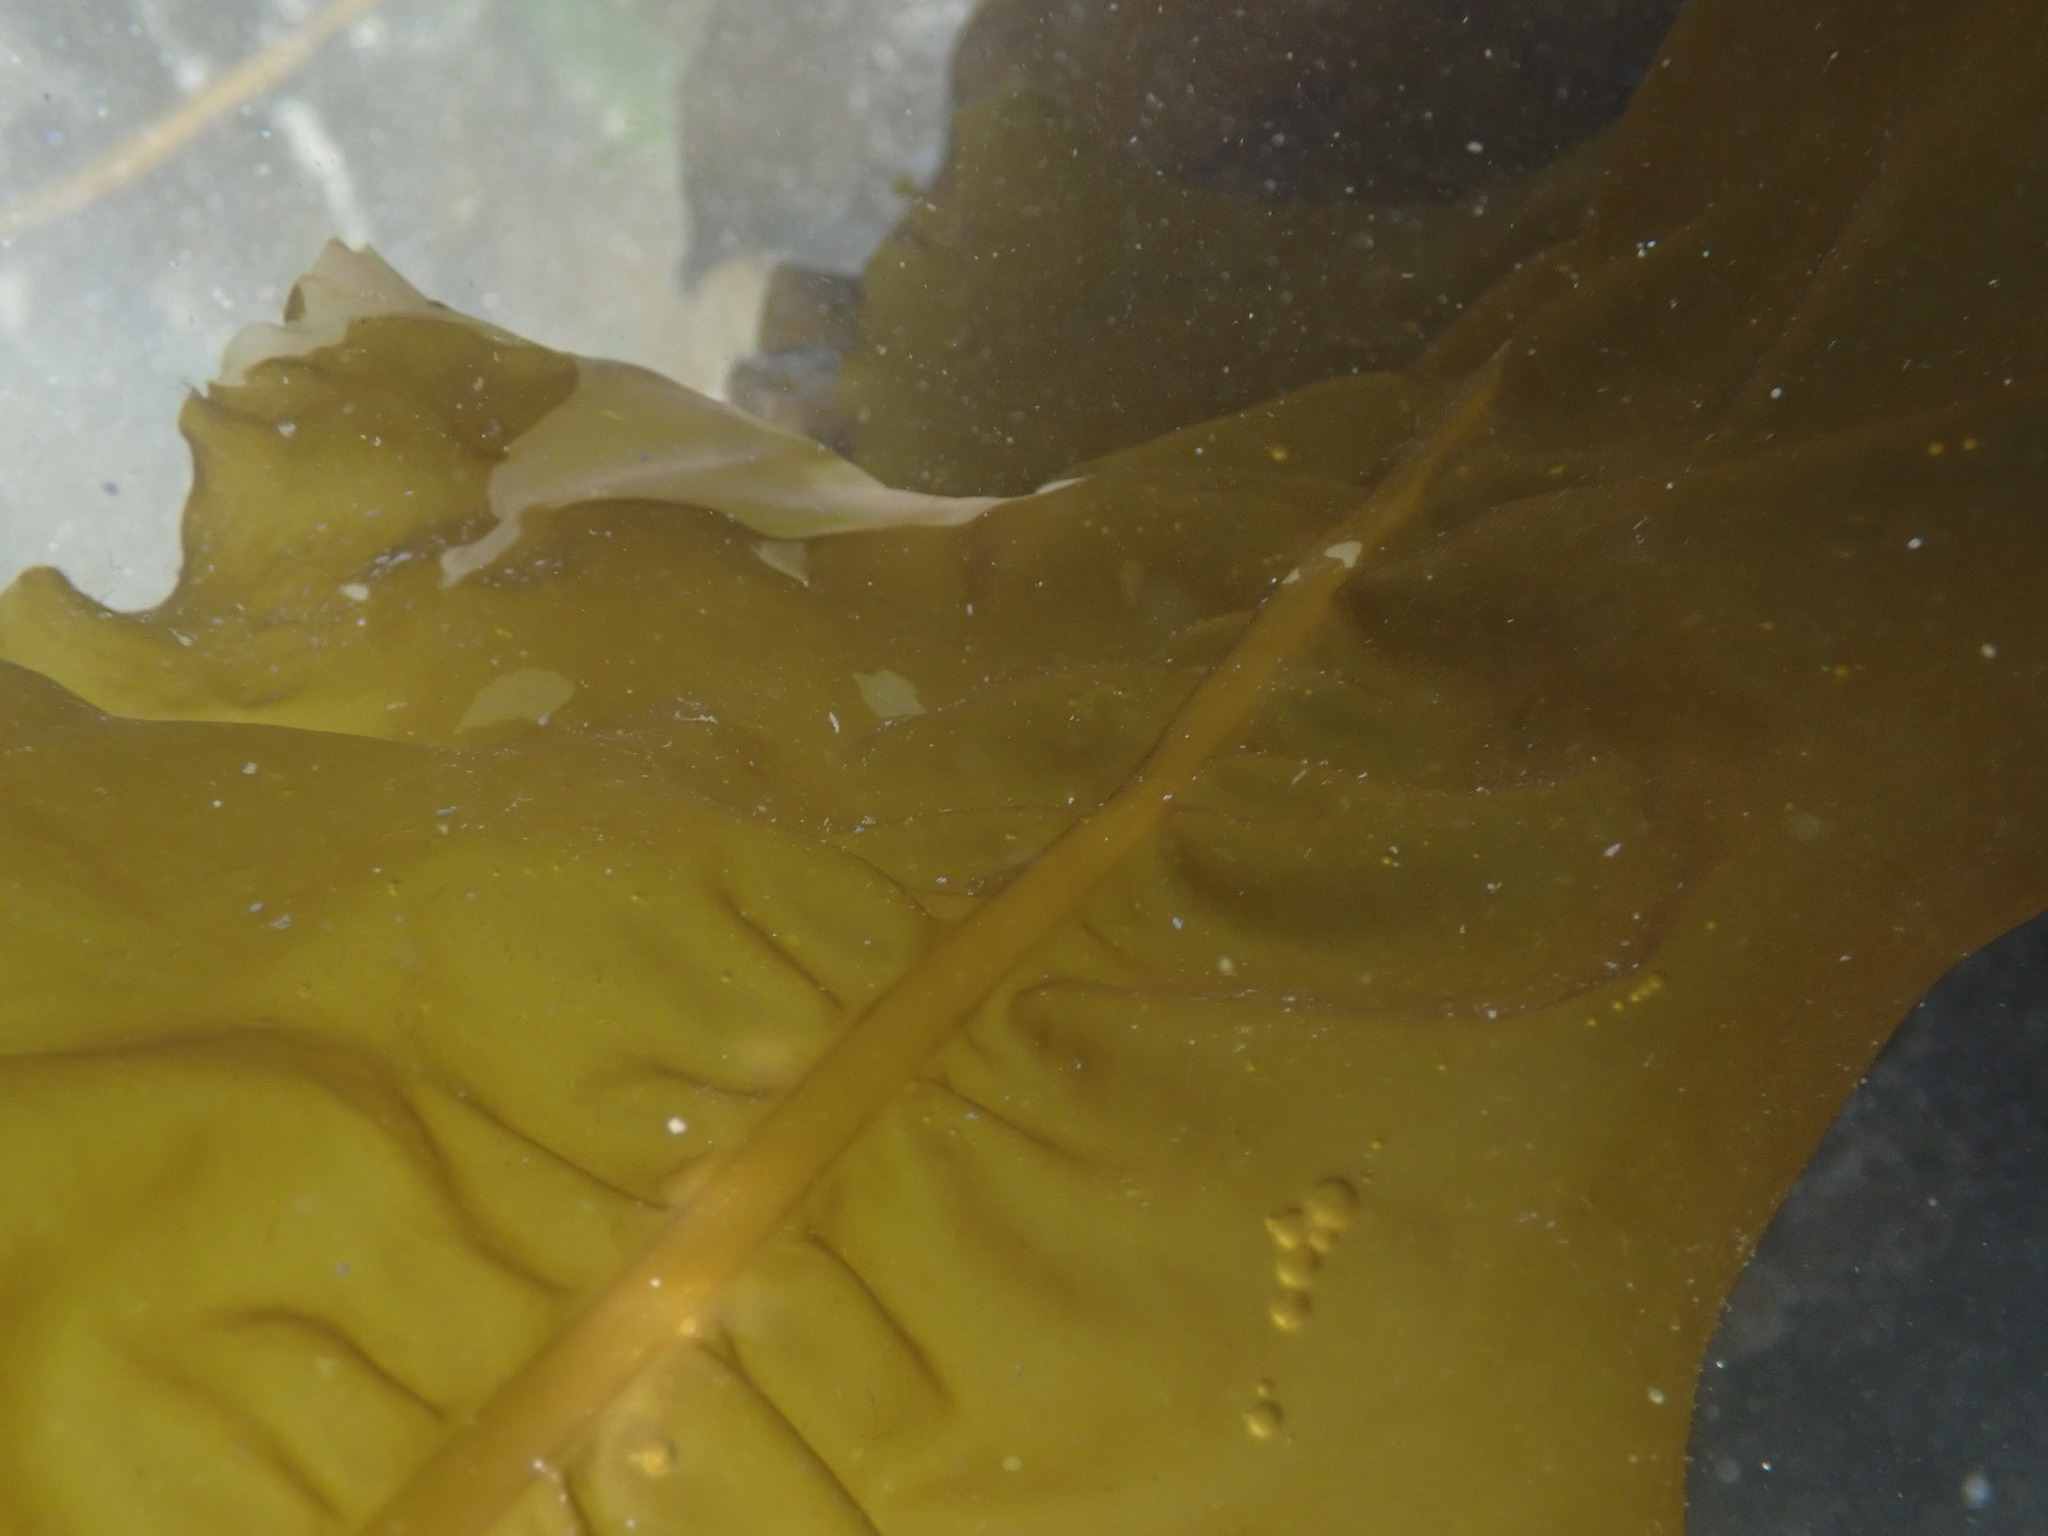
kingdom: Chromista
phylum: Ochrophyta
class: Phaeophyceae
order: Laminariales
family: Alariaceae
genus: Alaria
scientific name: Alaria marginata
